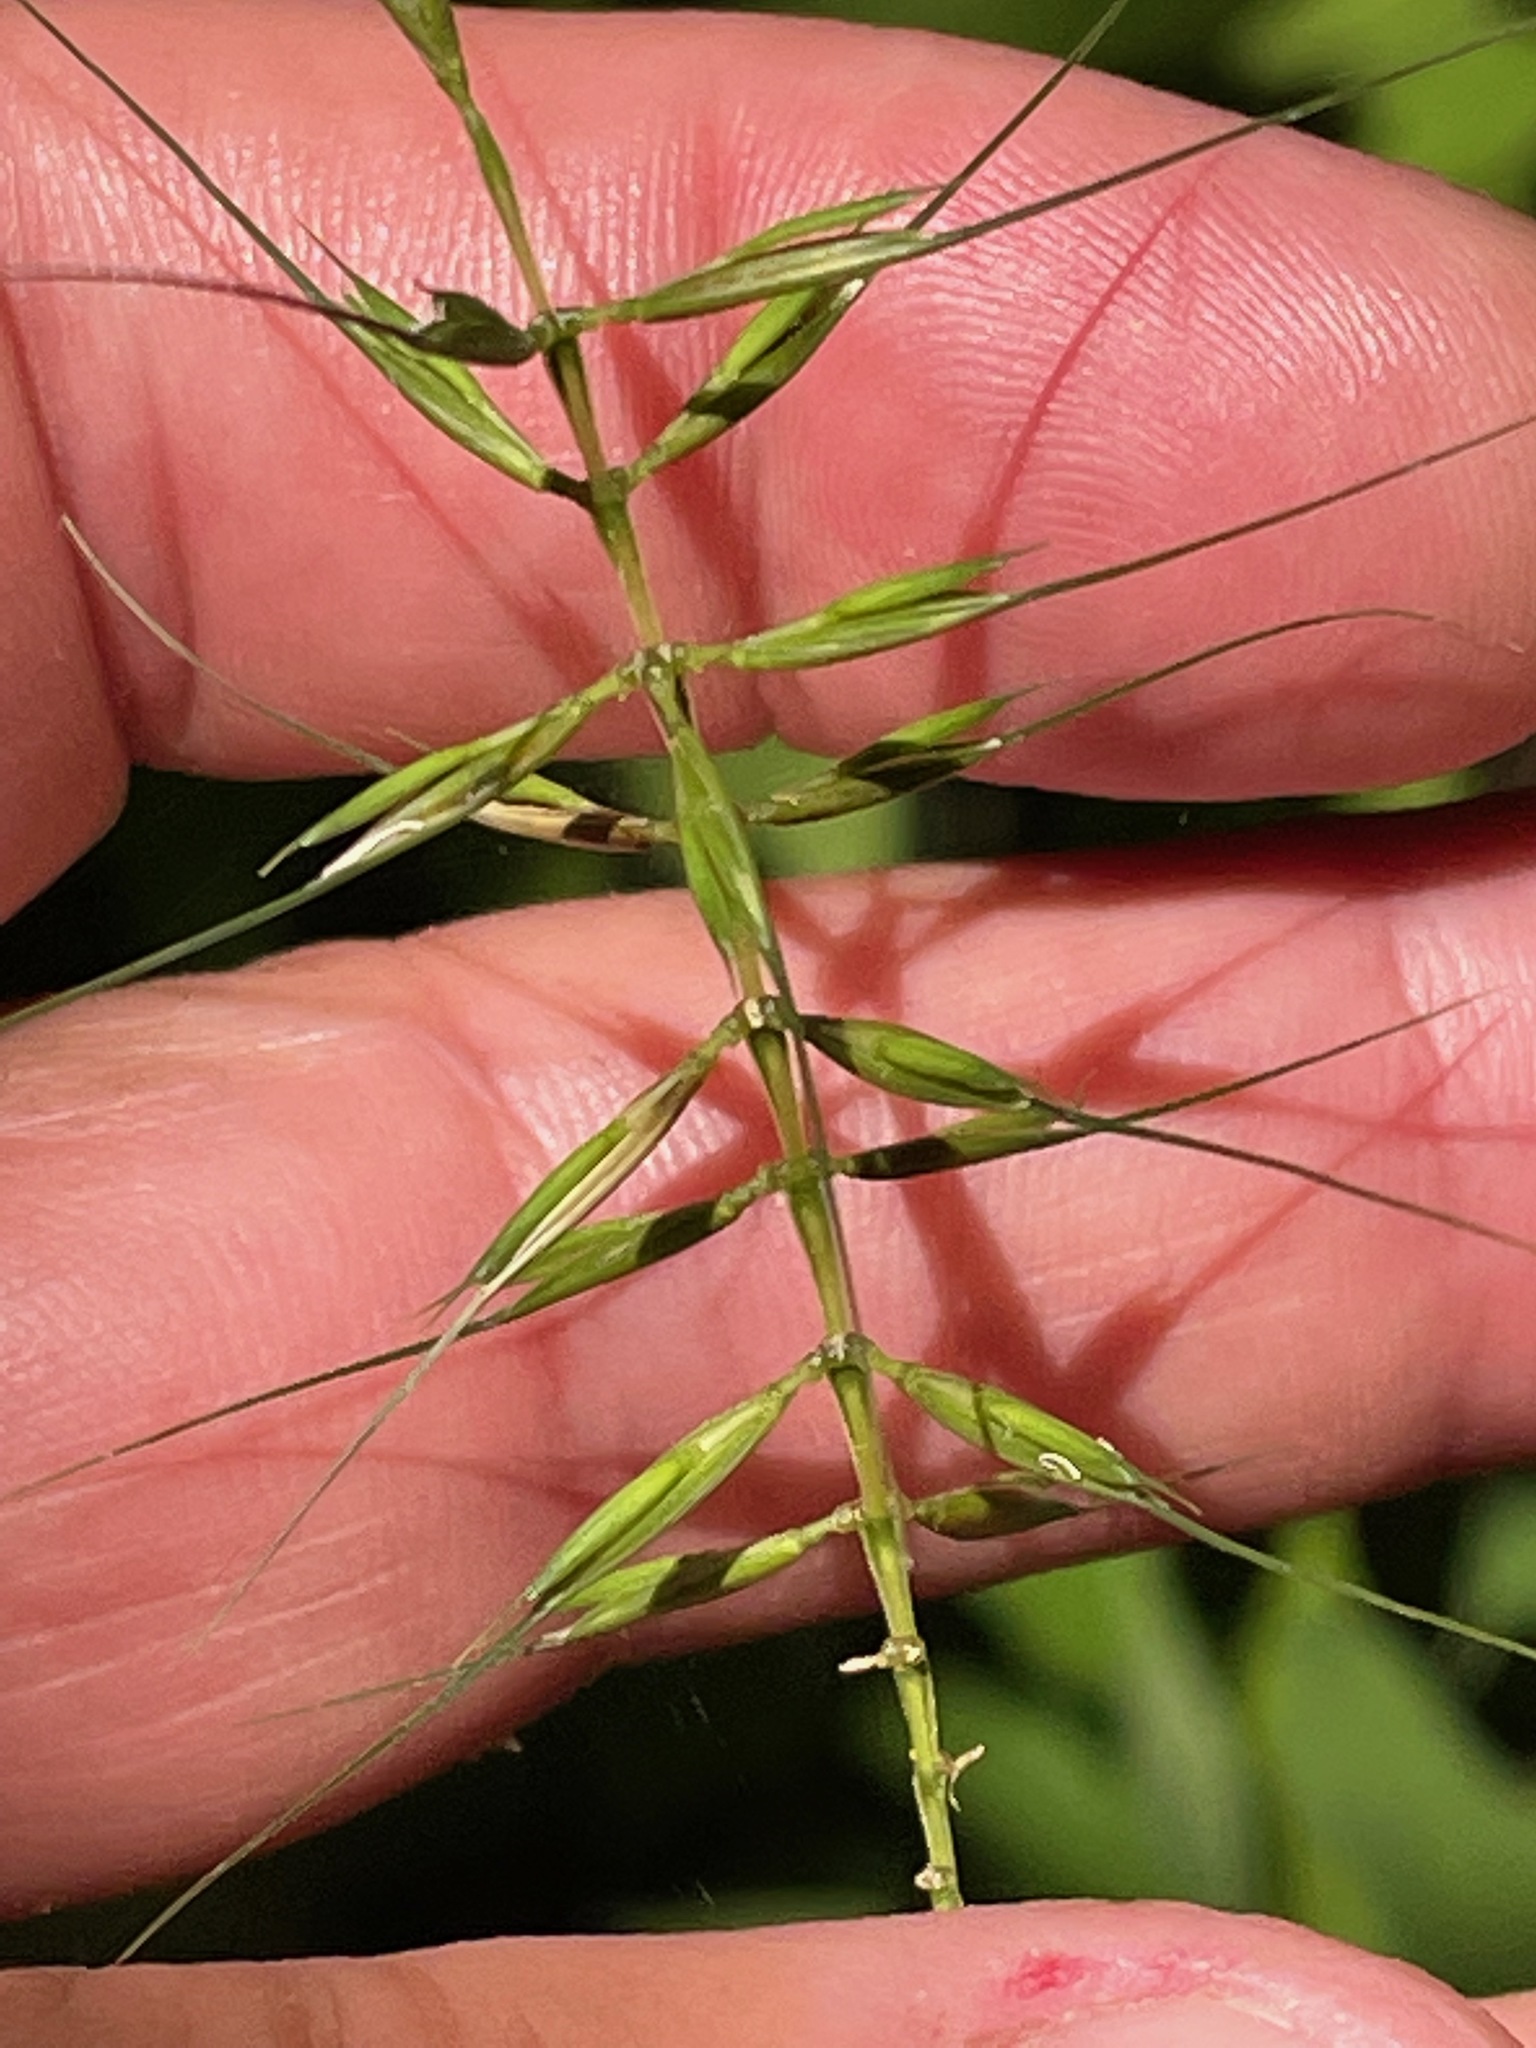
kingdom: Plantae
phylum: Tracheophyta
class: Liliopsida
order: Poales
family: Poaceae
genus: Elymus
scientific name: Elymus hystrix
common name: Bottlebrush grass
